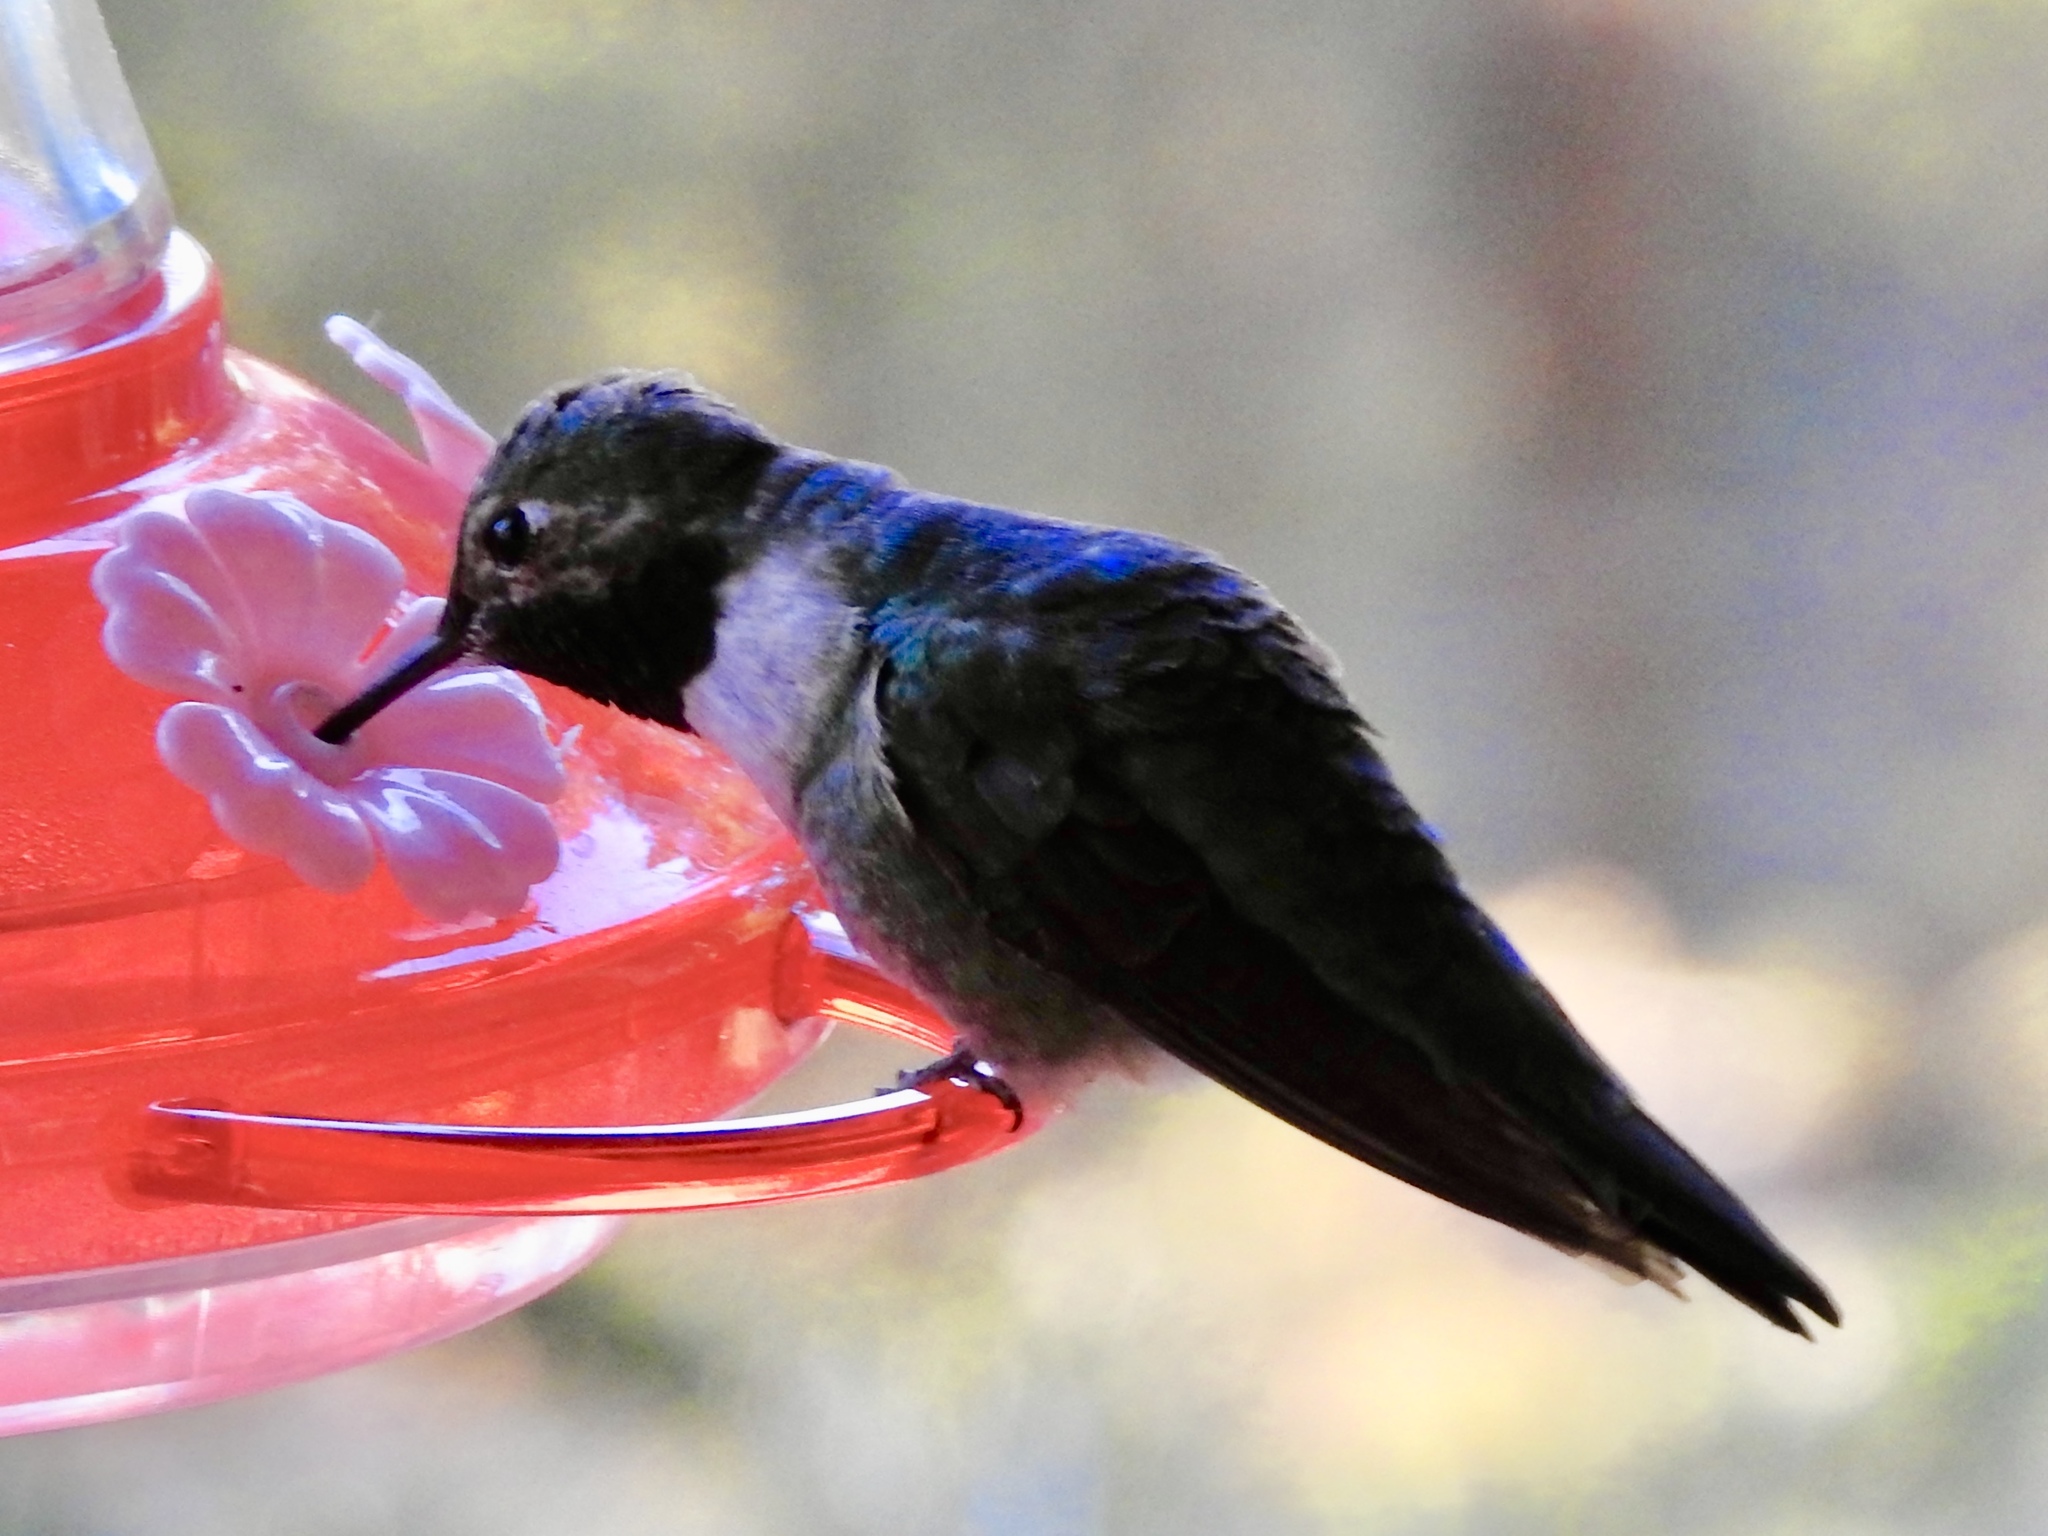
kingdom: Animalia
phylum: Chordata
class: Aves
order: Apodiformes
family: Trochilidae
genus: Selasphorus
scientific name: Selasphorus platycercus
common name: Broad-tailed hummingbird
